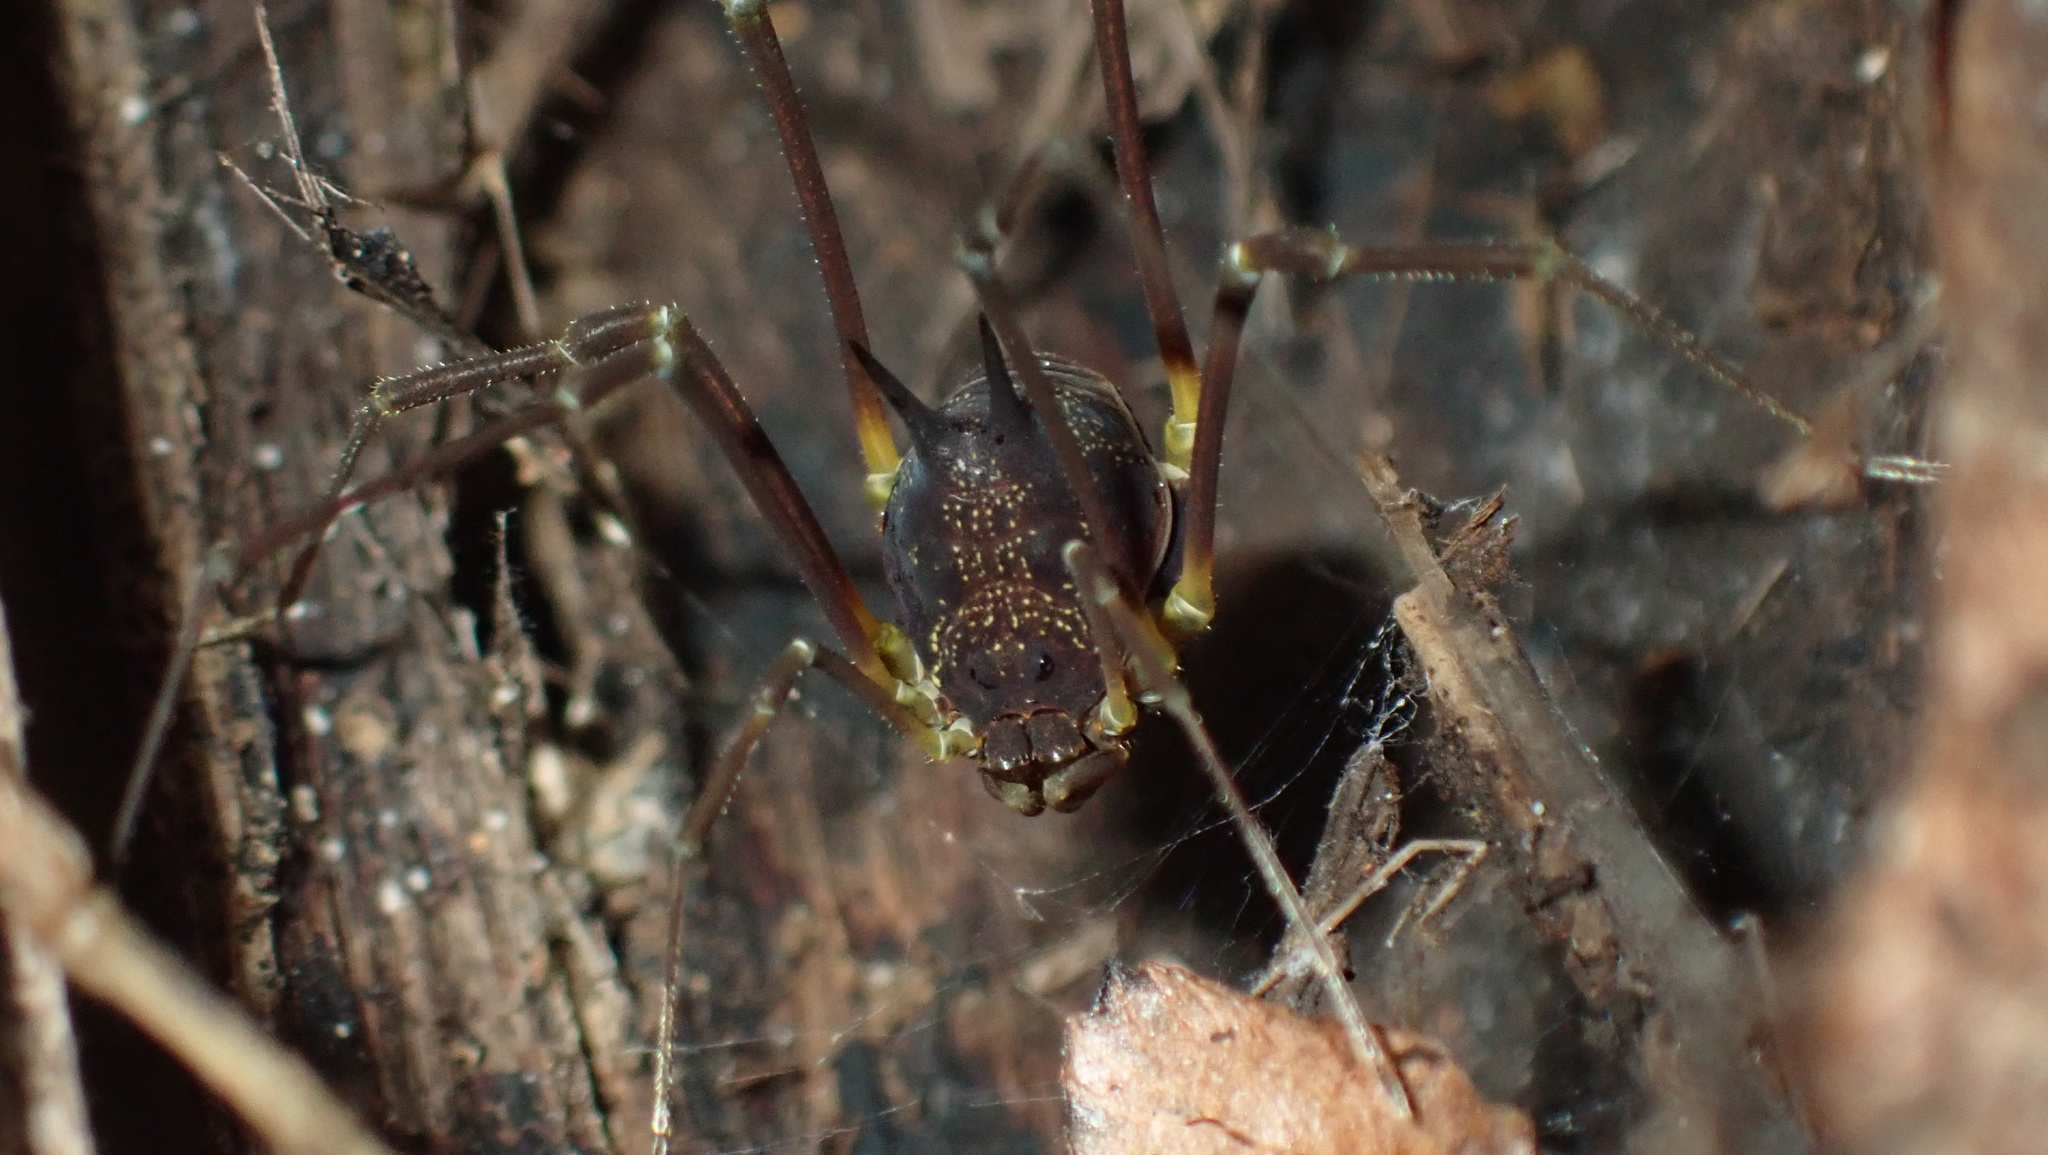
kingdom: Animalia
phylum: Arthropoda
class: Arachnida
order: Opiliones
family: Cosmetidae
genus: Paecilaema
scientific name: Paecilaema luquillense
